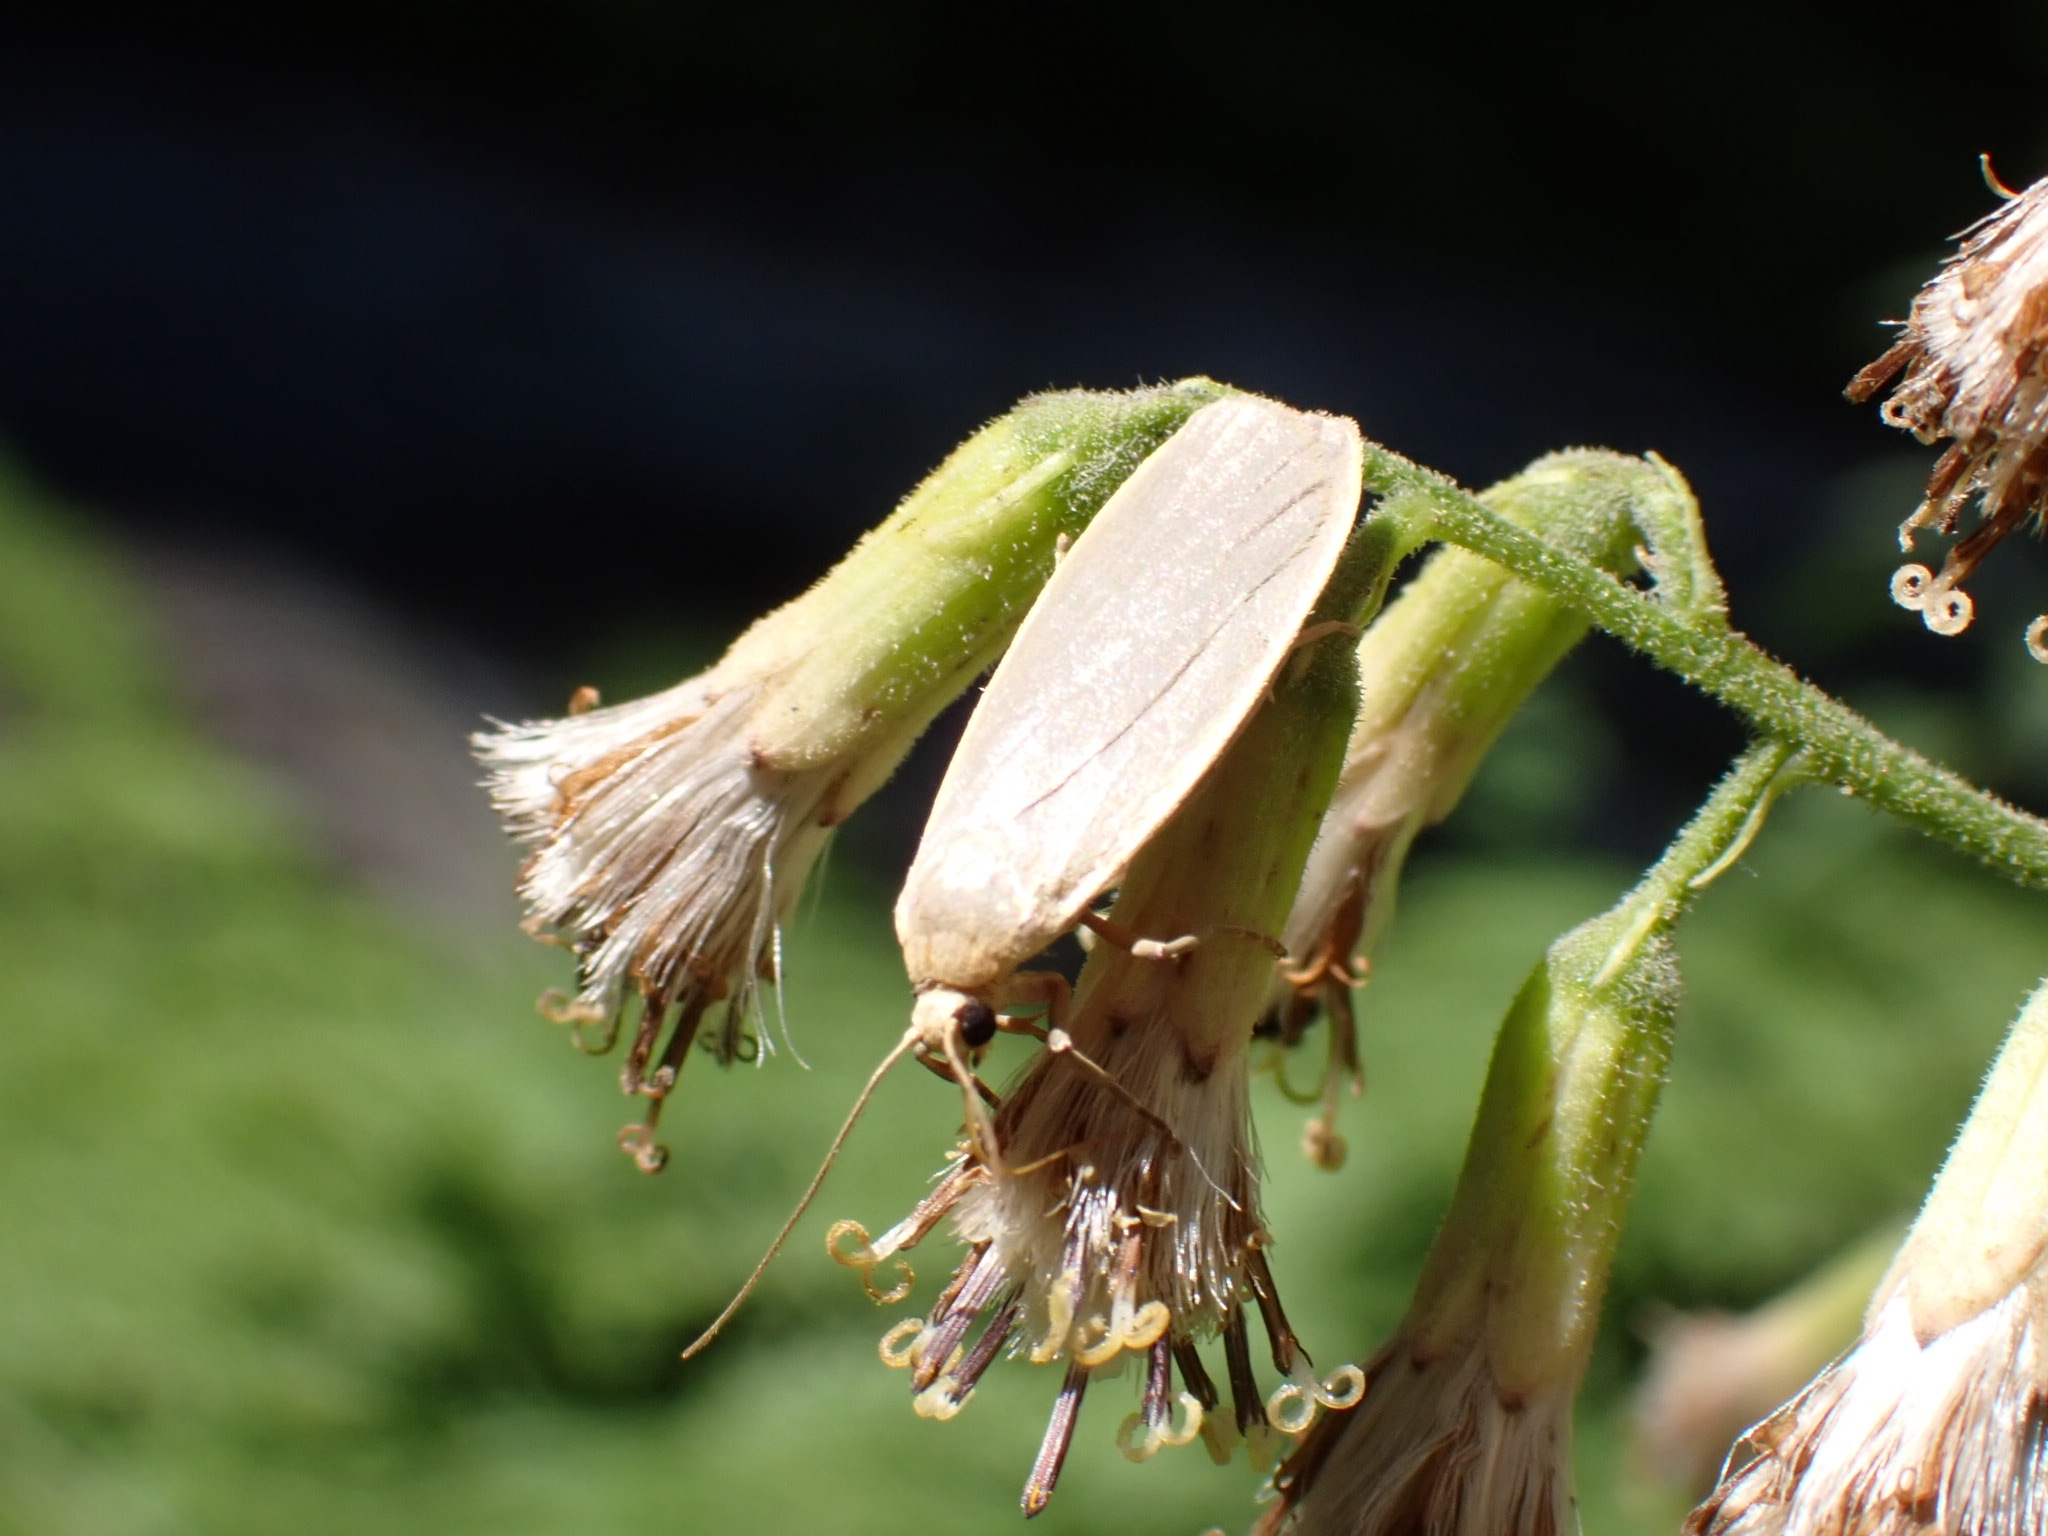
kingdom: Animalia
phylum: Arthropoda
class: Insecta
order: Lepidoptera
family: Erebidae
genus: Collita
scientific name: Collita griseola
